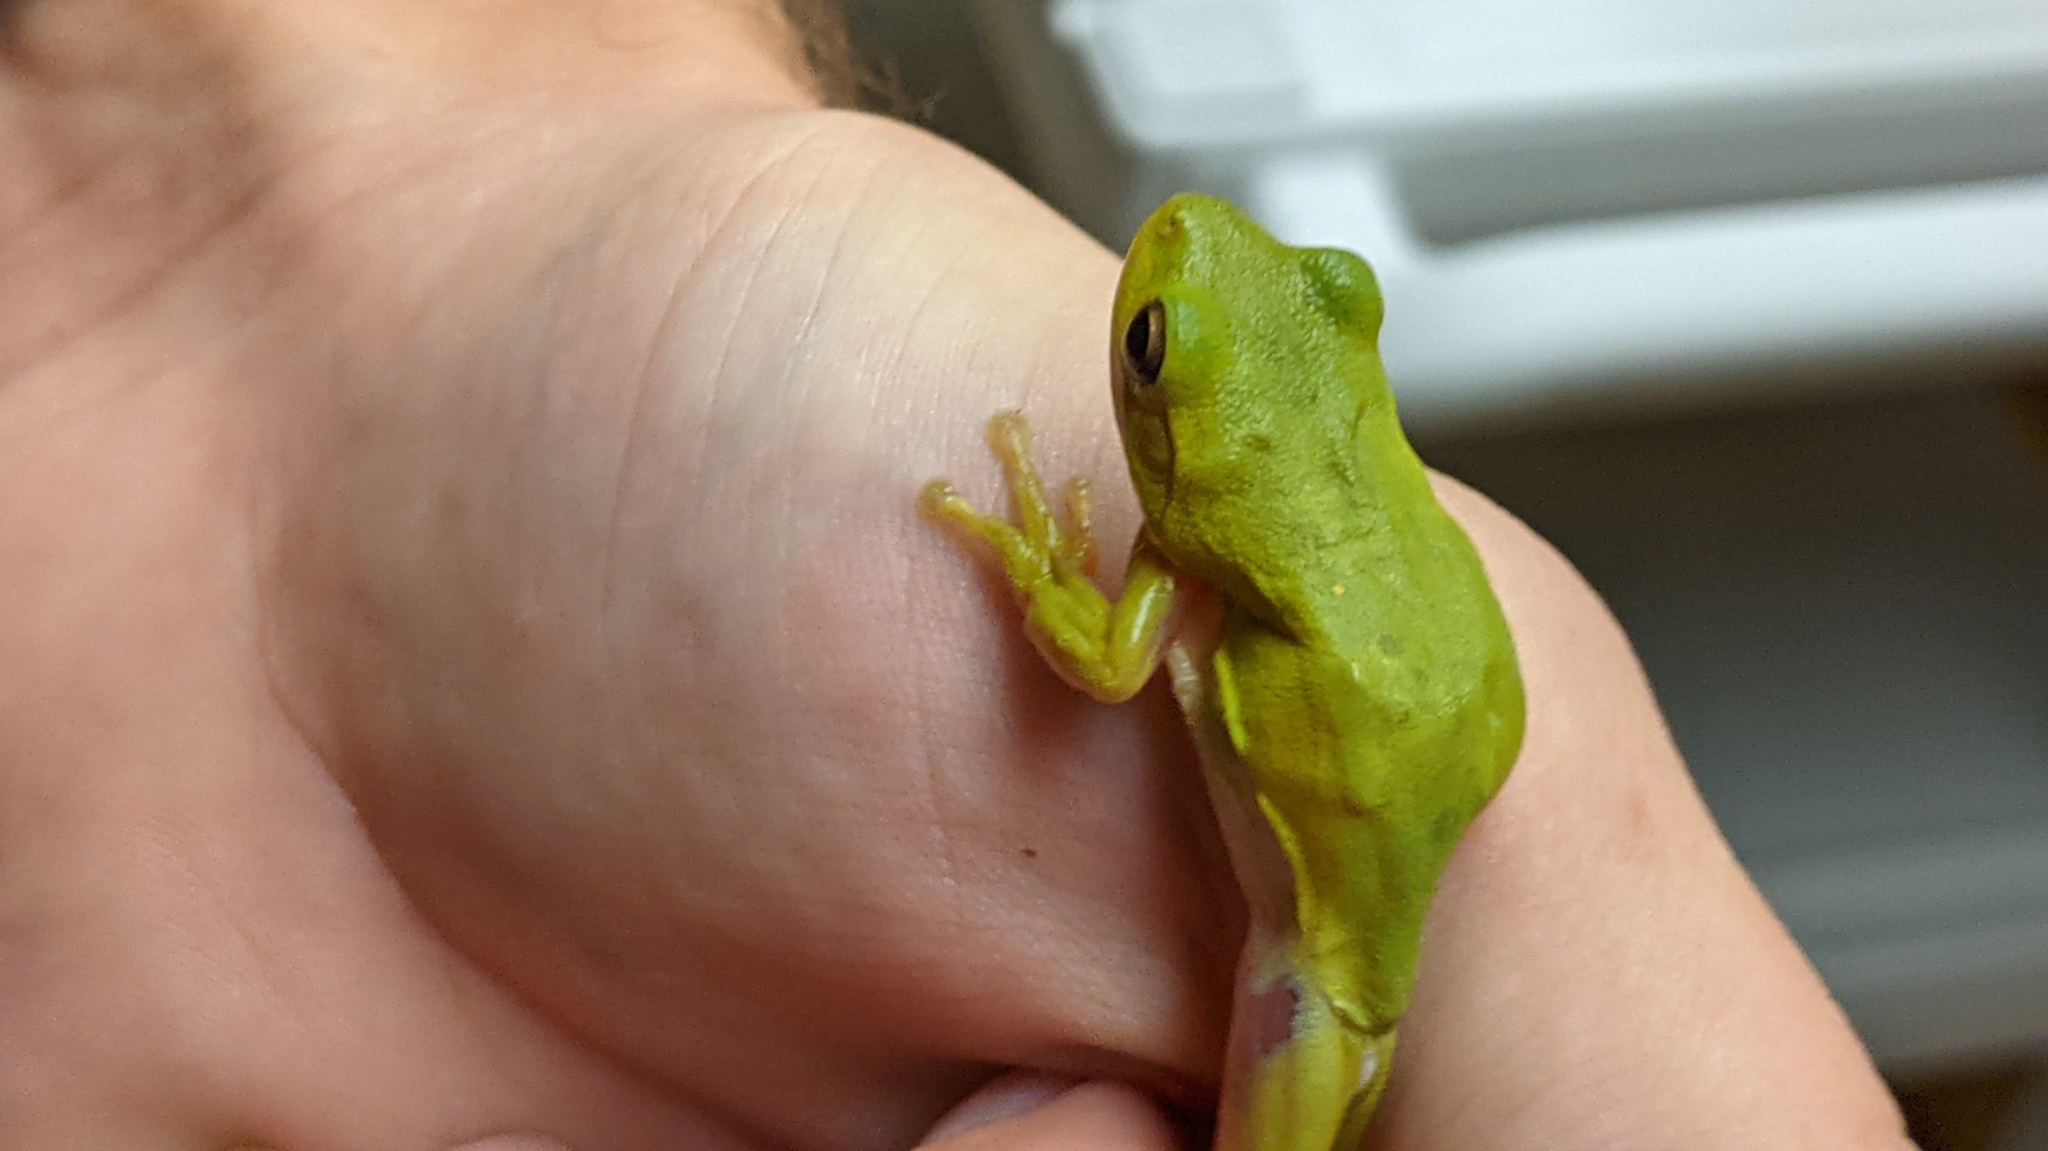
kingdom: Animalia
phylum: Chordata
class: Amphibia
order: Anura
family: Hylidae
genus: Dryophytes
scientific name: Dryophytes cinereus
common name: Green treefrog
